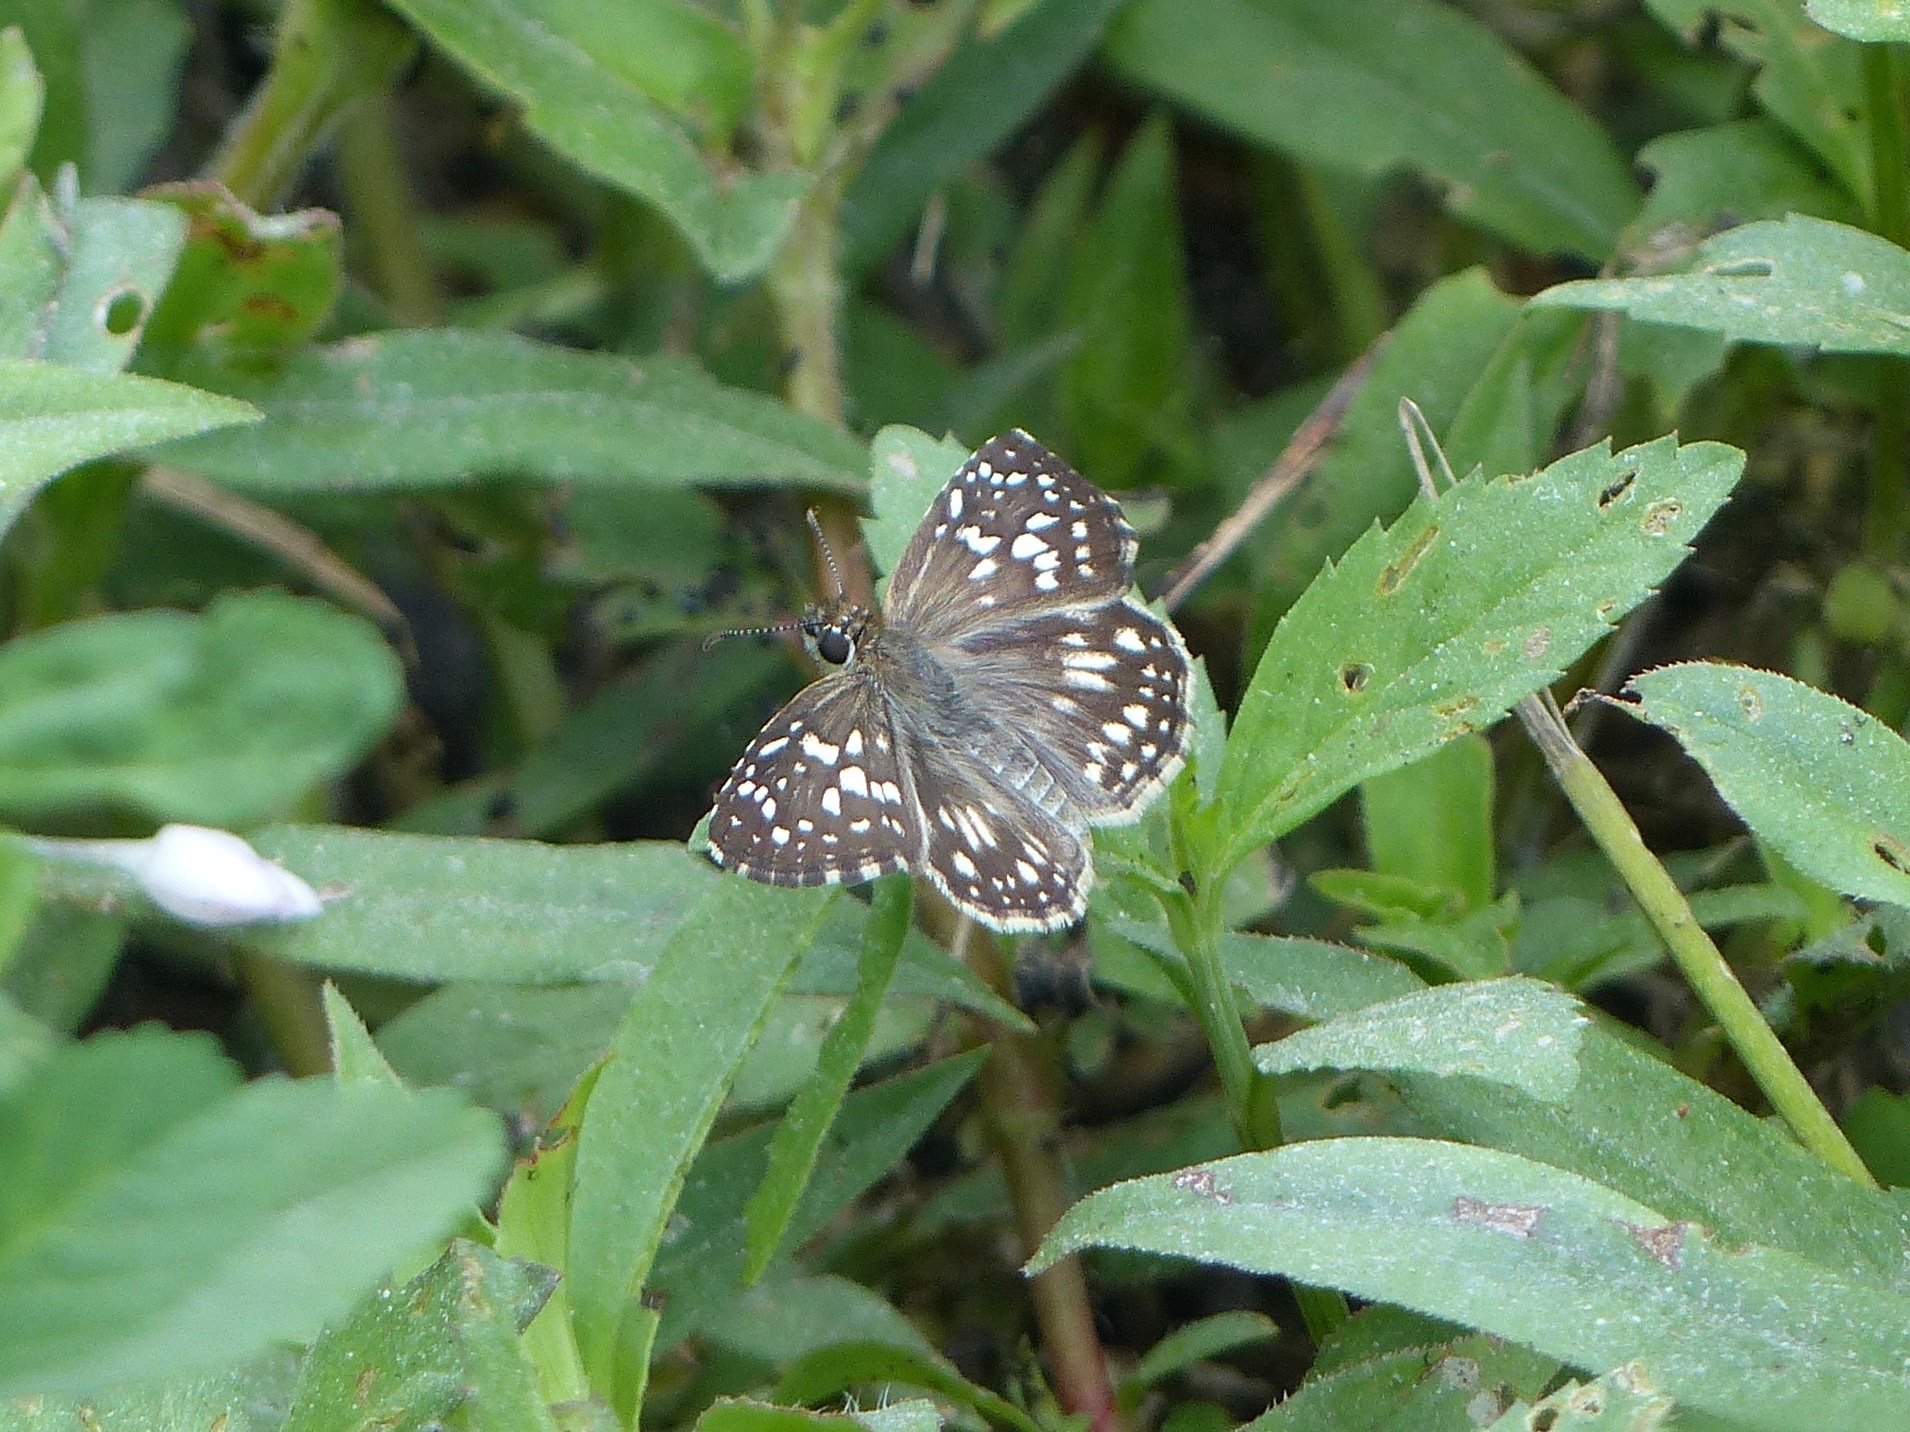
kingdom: Animalia
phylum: Arthropoda
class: Insecta
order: Lepidoptera
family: Hesperiidae
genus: Pyrgus
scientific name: Pyrgus oileus
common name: Tropical checkered-skipper
